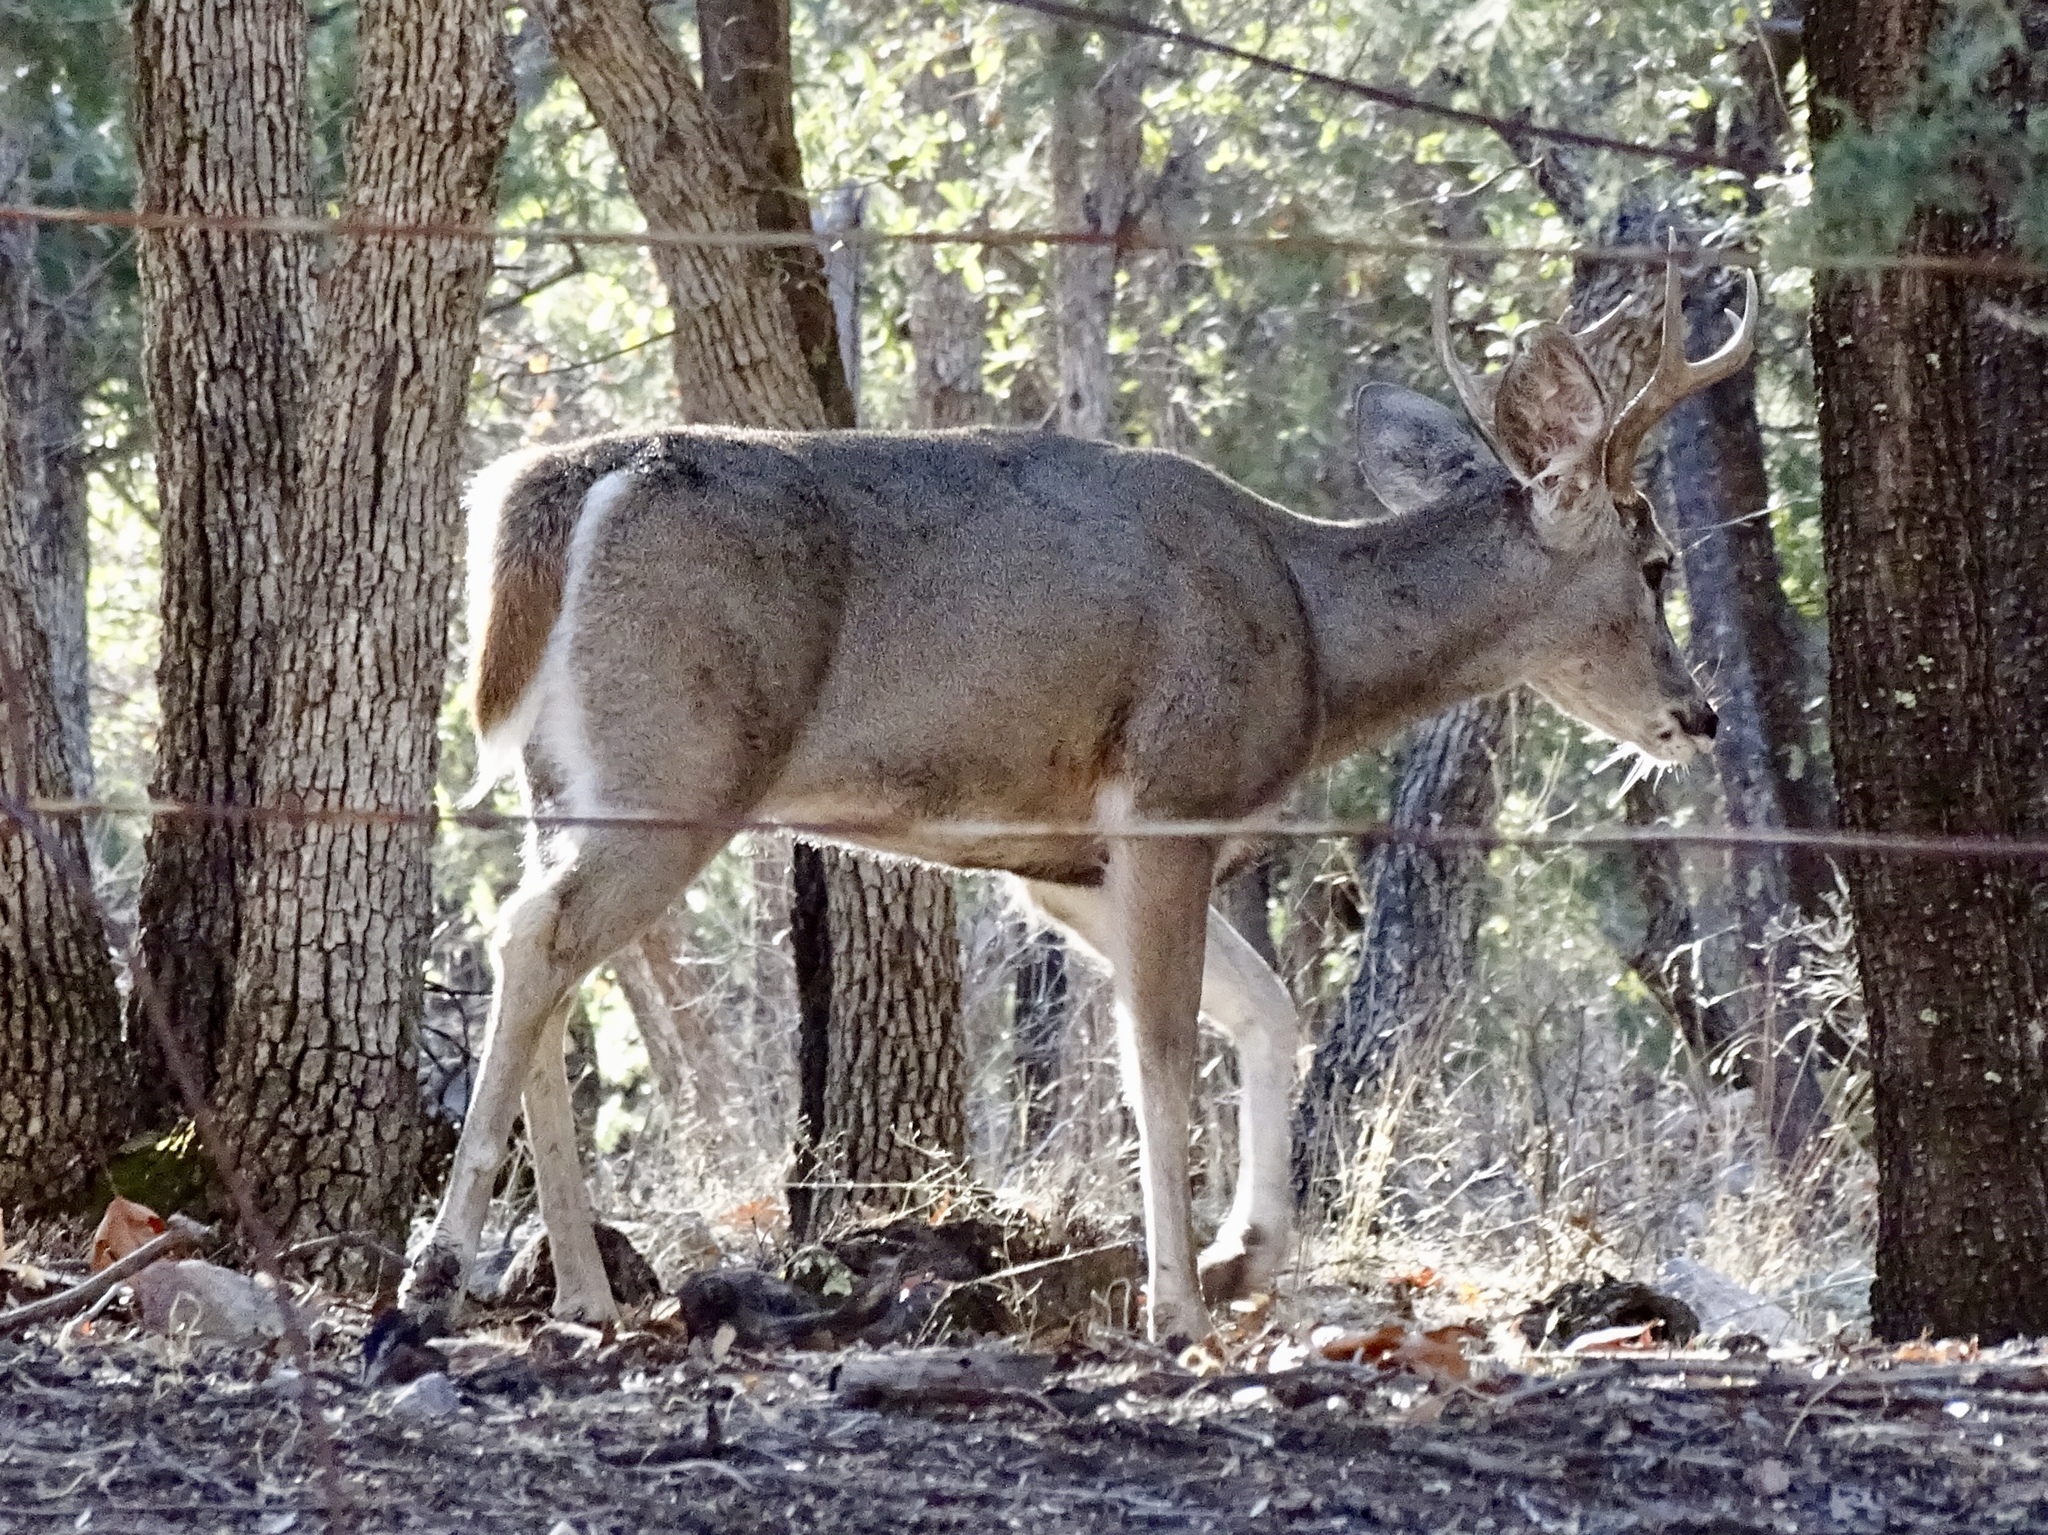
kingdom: Animalia
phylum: Chordata
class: Mammalia
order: Artiodactyla
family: Cervidae
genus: Odocoileus
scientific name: Odocoileus virginianus
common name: White-tailed deer
